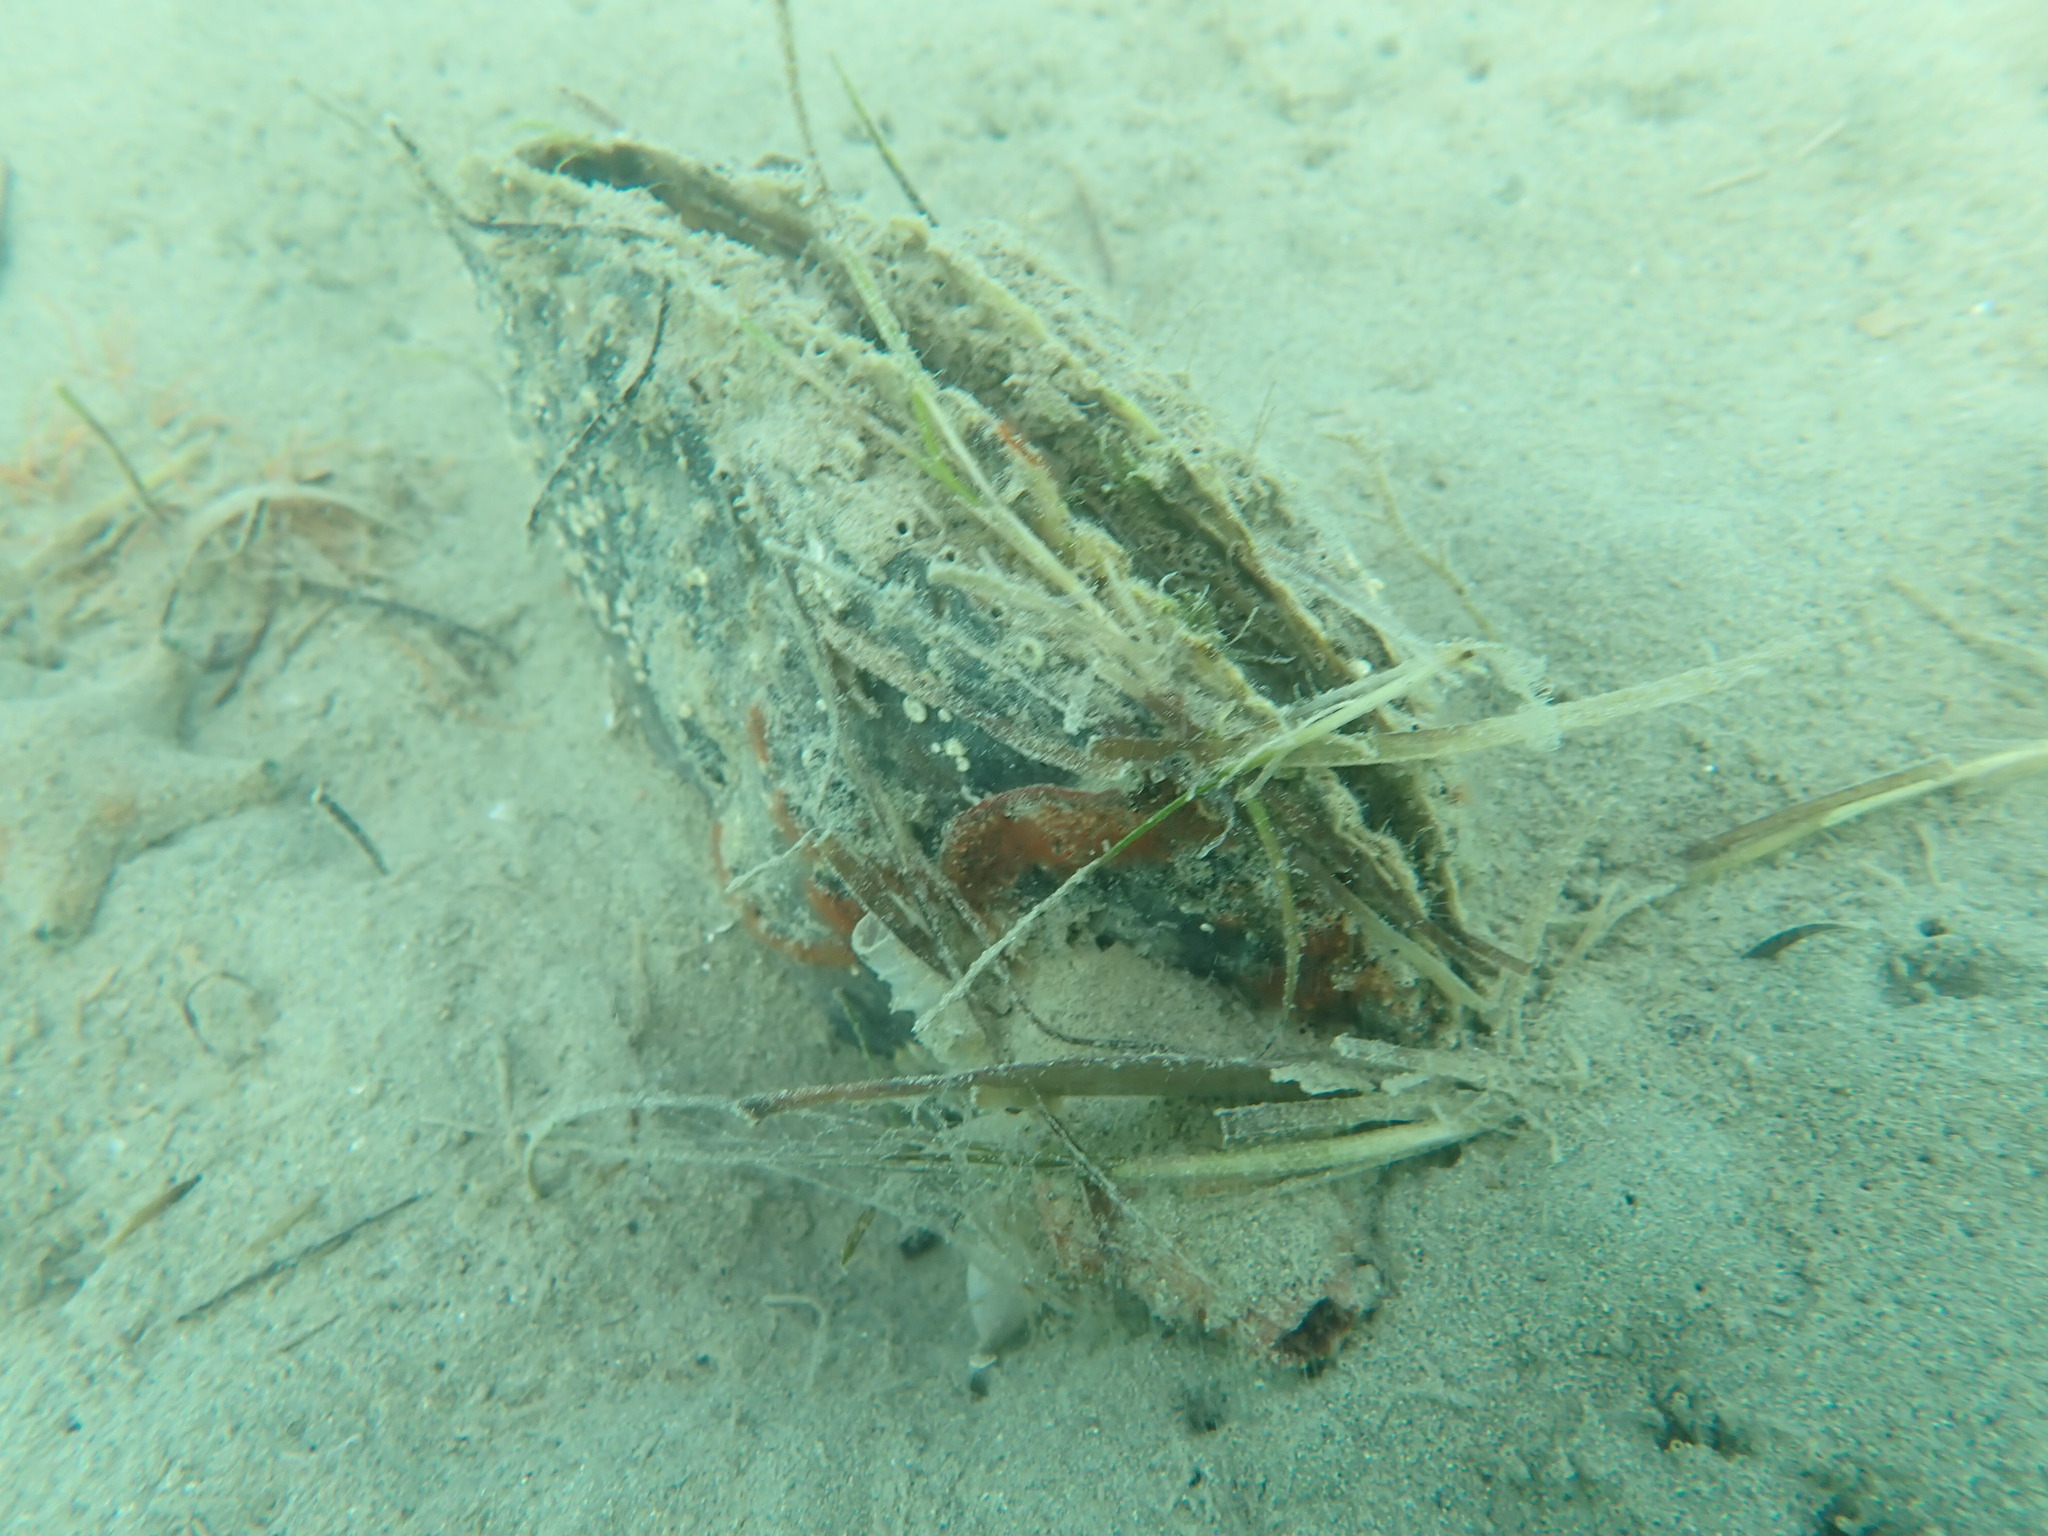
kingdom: Animalia
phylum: Mollusca
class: Bivalvia
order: Ostreida
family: Pinnidae
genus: Atrina
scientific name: Atrina zelandica
